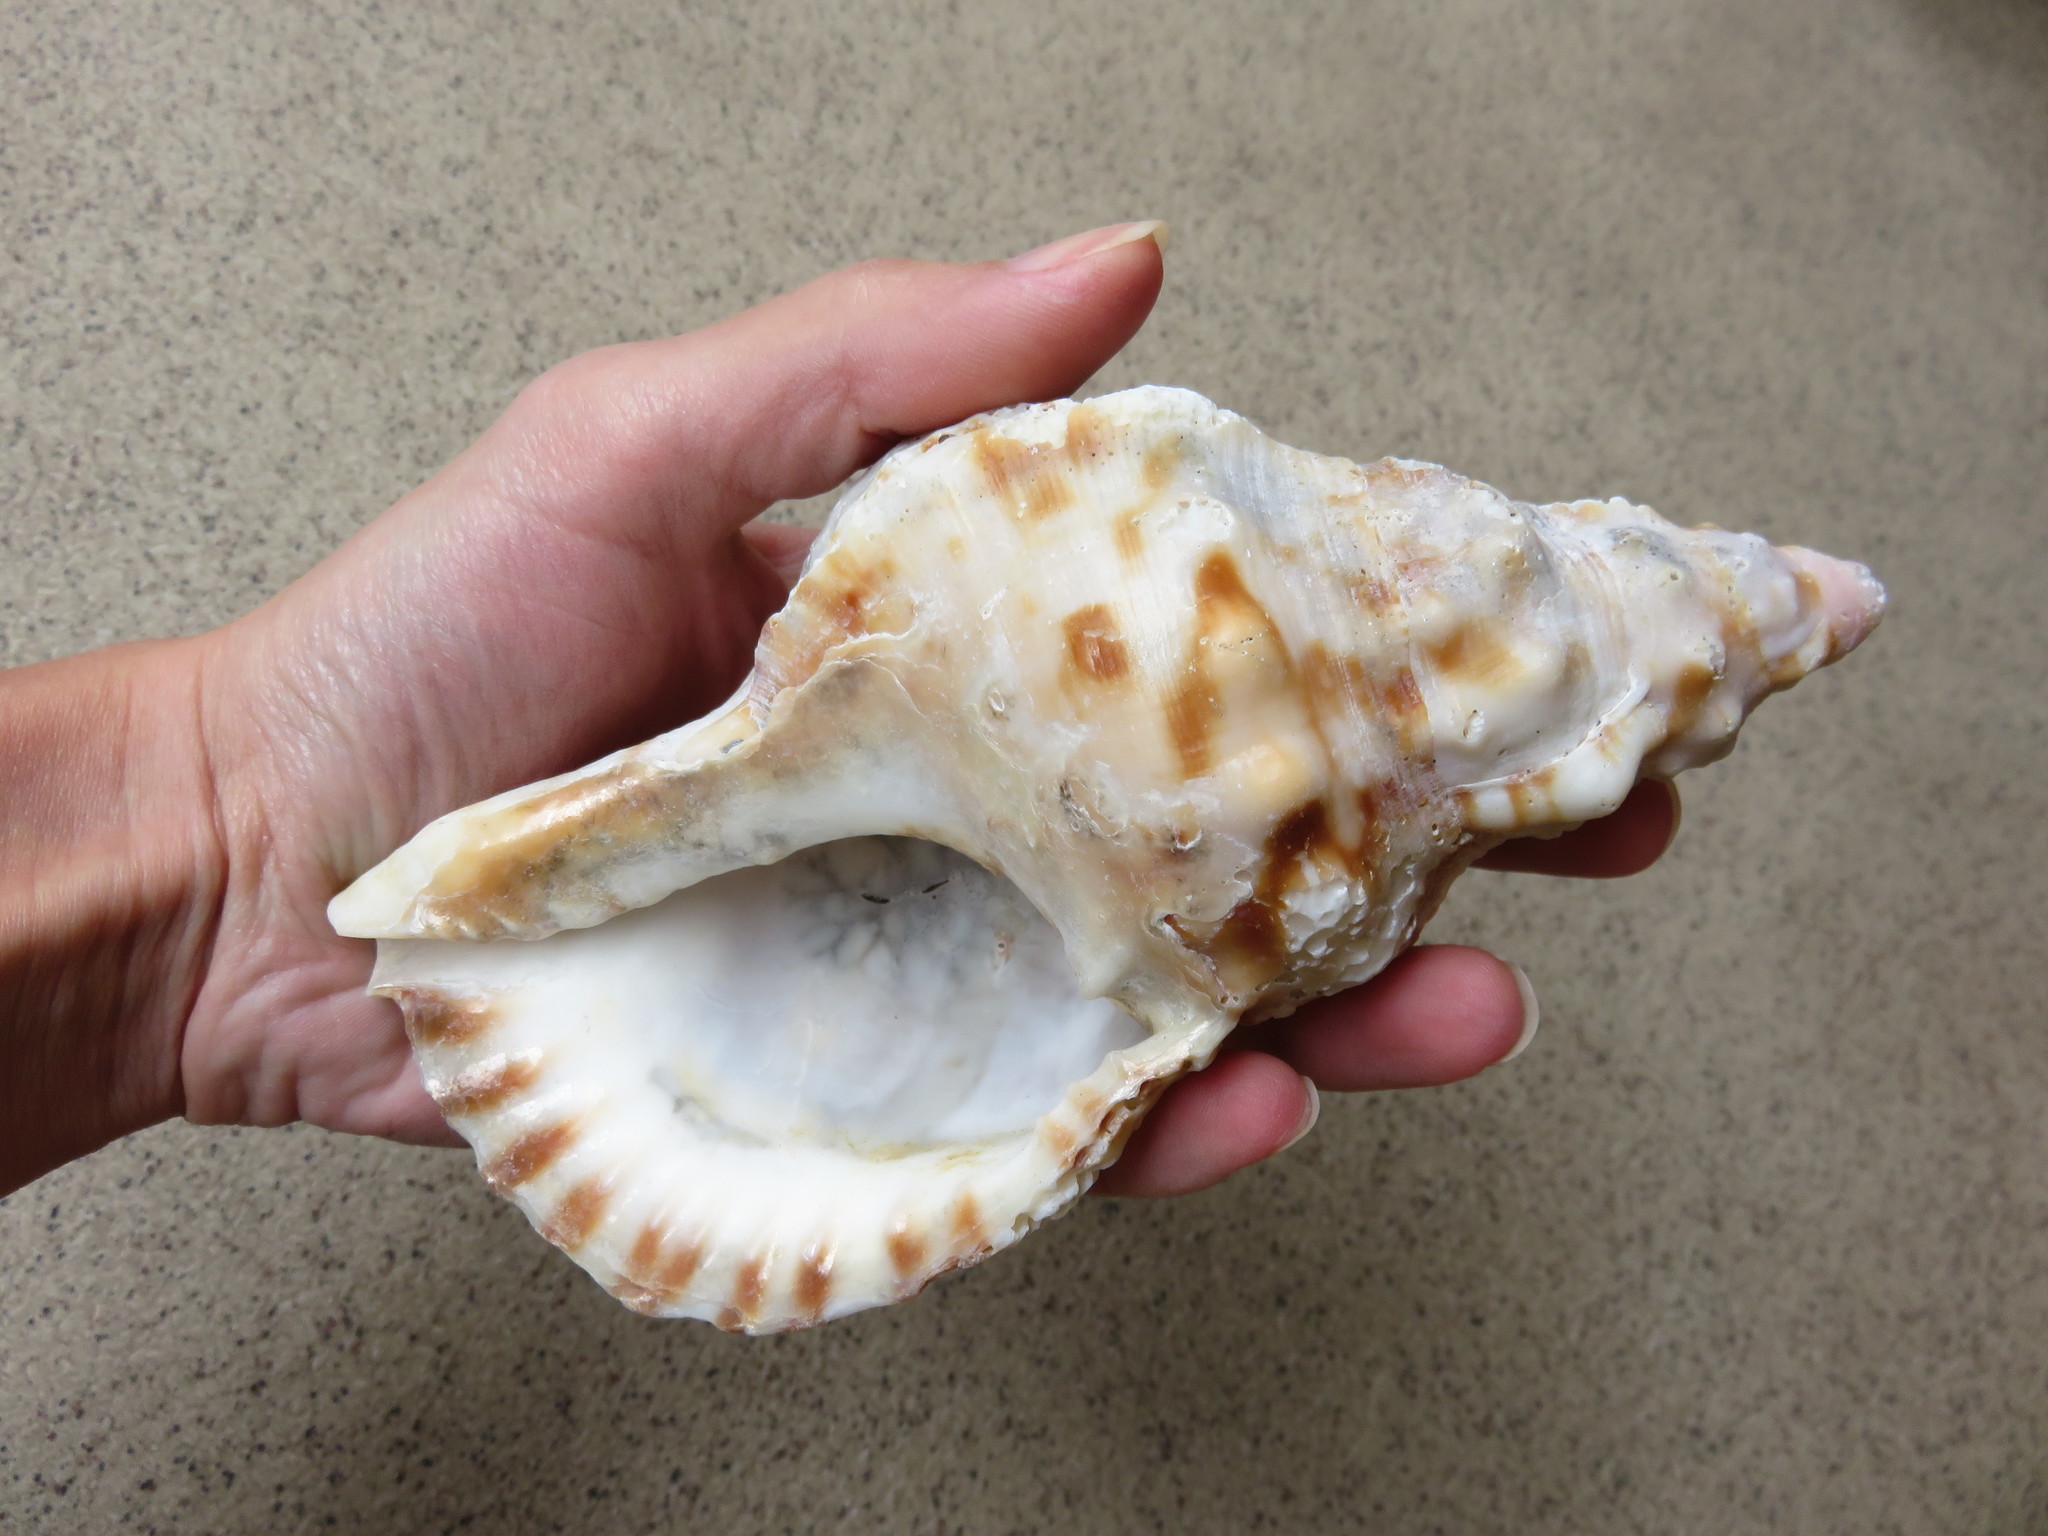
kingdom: Animalia
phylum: Mollusca
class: Gastropoda
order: Littorinimorpha
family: Charoniidae
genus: Charonia
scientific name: Charonia lampas
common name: Knobbed triton
